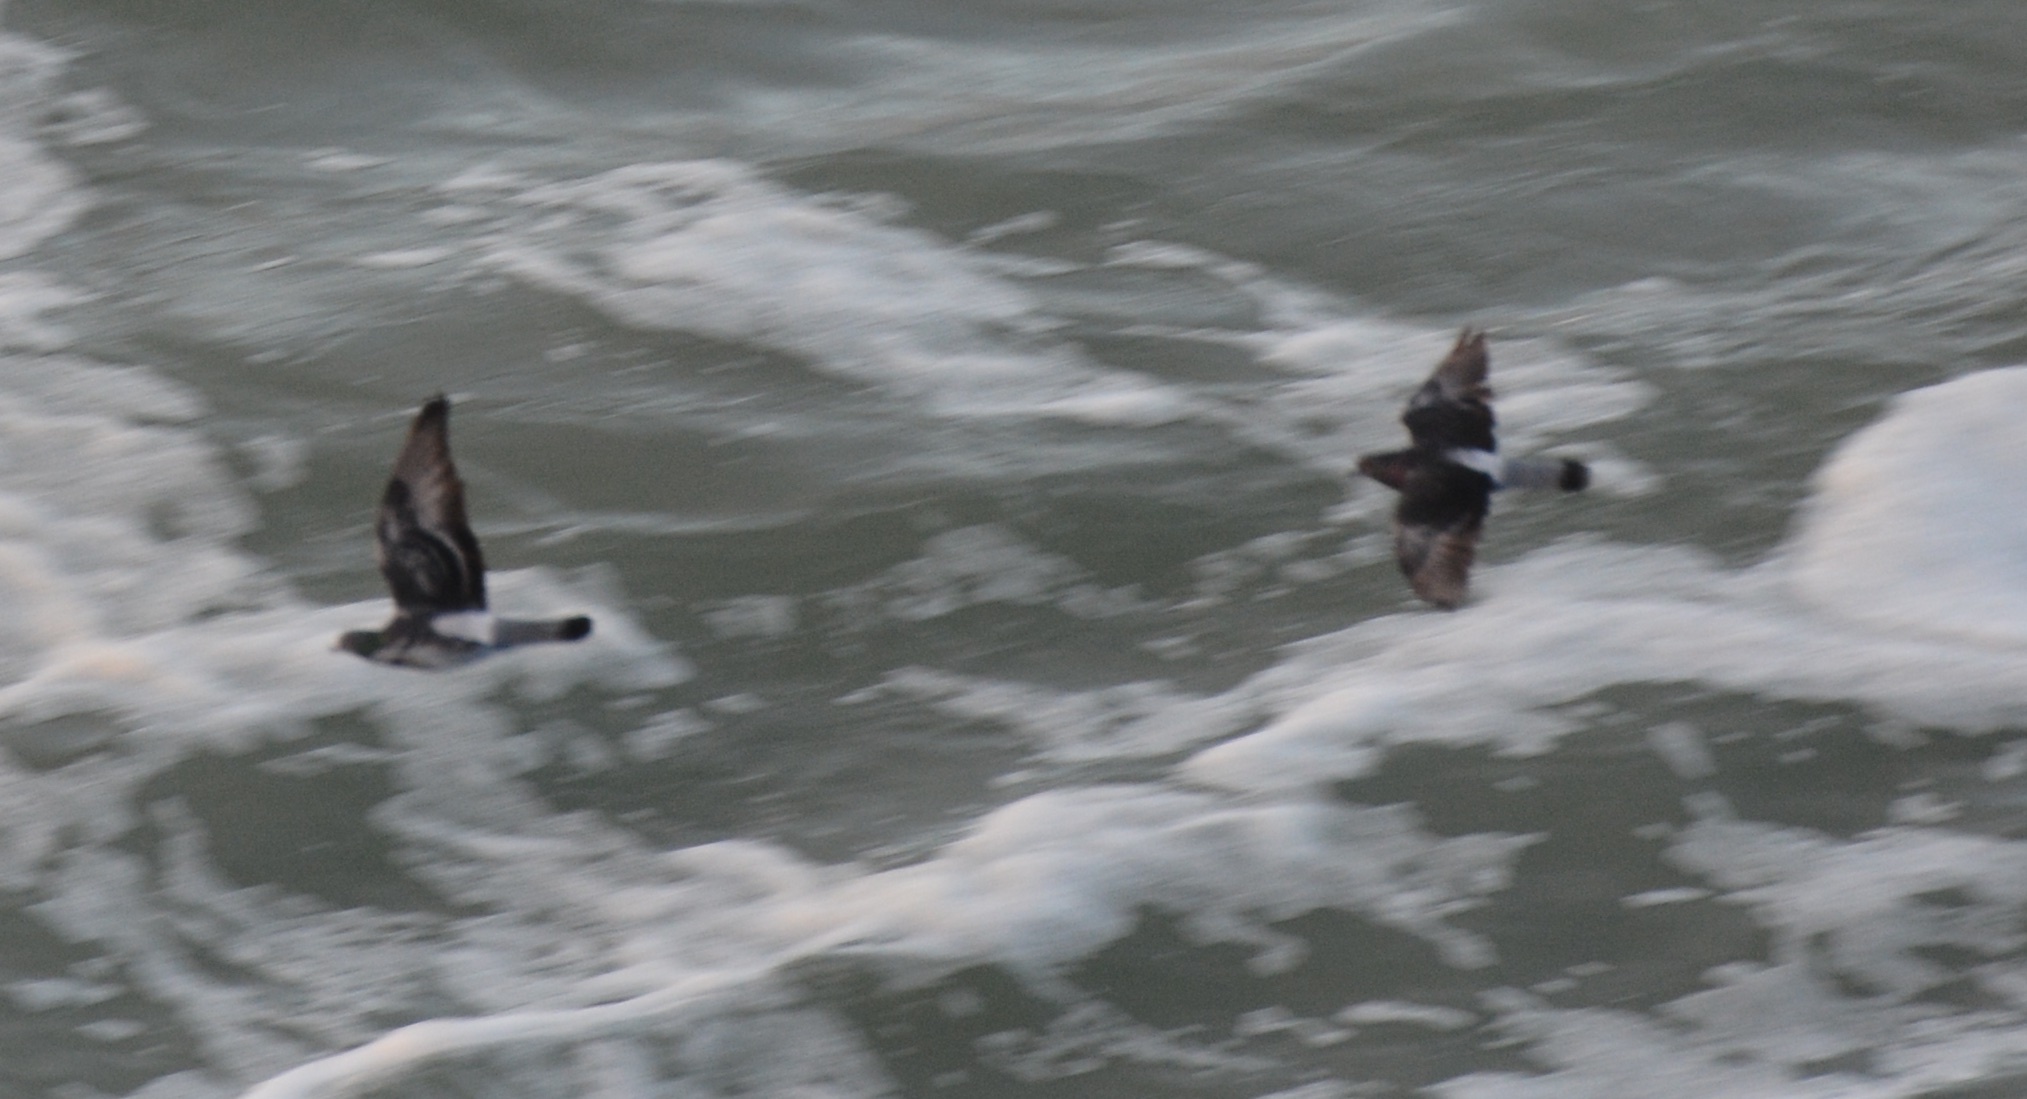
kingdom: Animalia
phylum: Chordata
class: Aves
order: Columbiformes
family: Columbidae
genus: Columba
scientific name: Columba livia
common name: Rock pigeon
